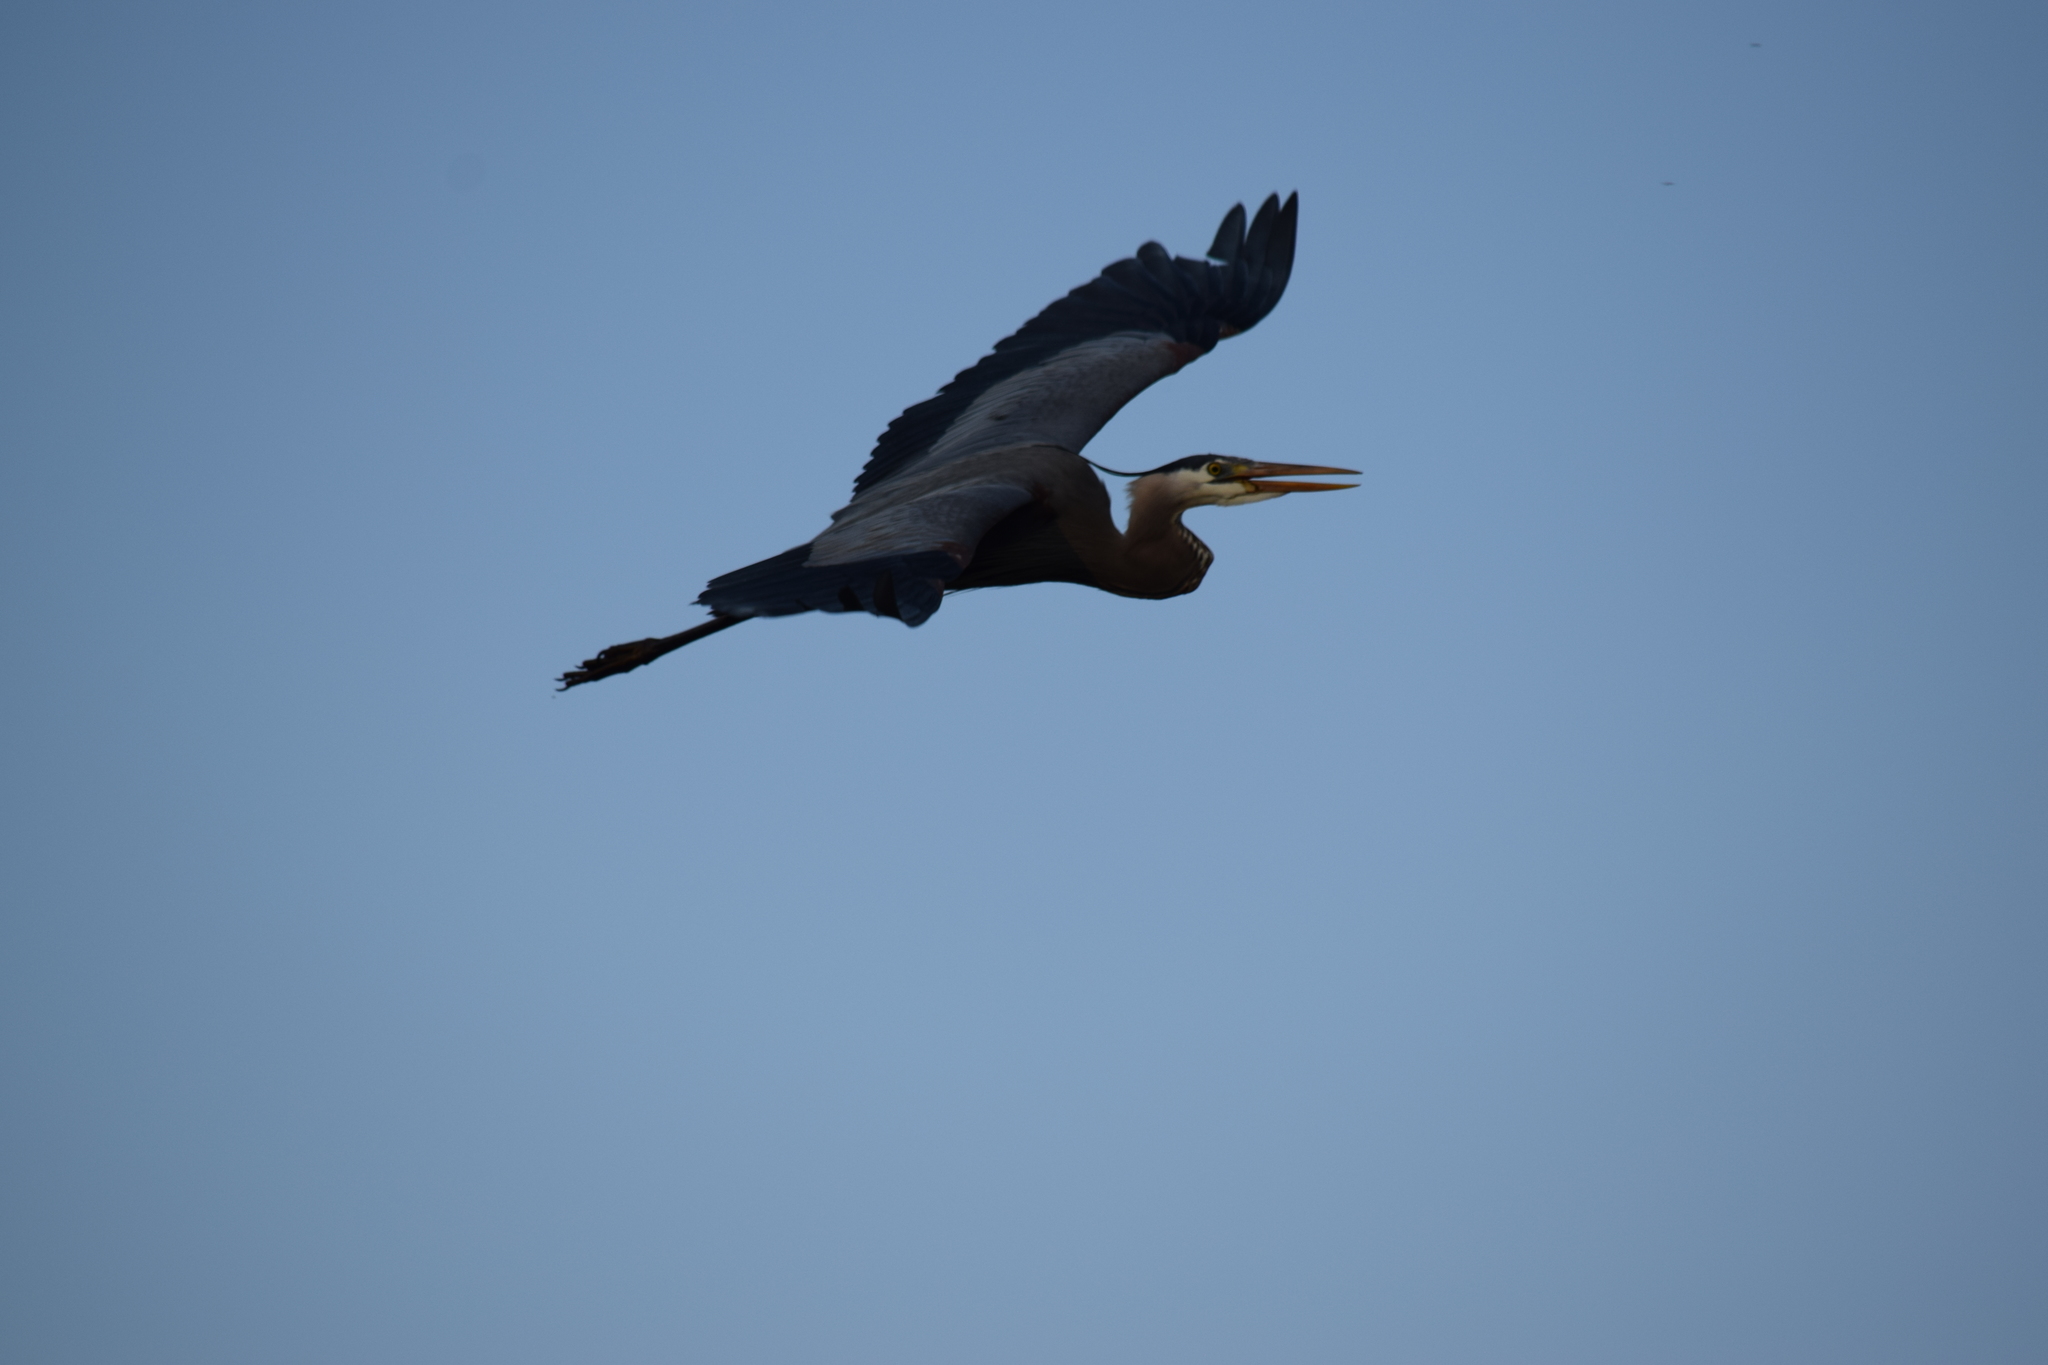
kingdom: Animalia
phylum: Chordata
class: Aves
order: Pelecaniformes
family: Ardeidae
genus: Ardea
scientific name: Ardea herodias
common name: Great blue heron
